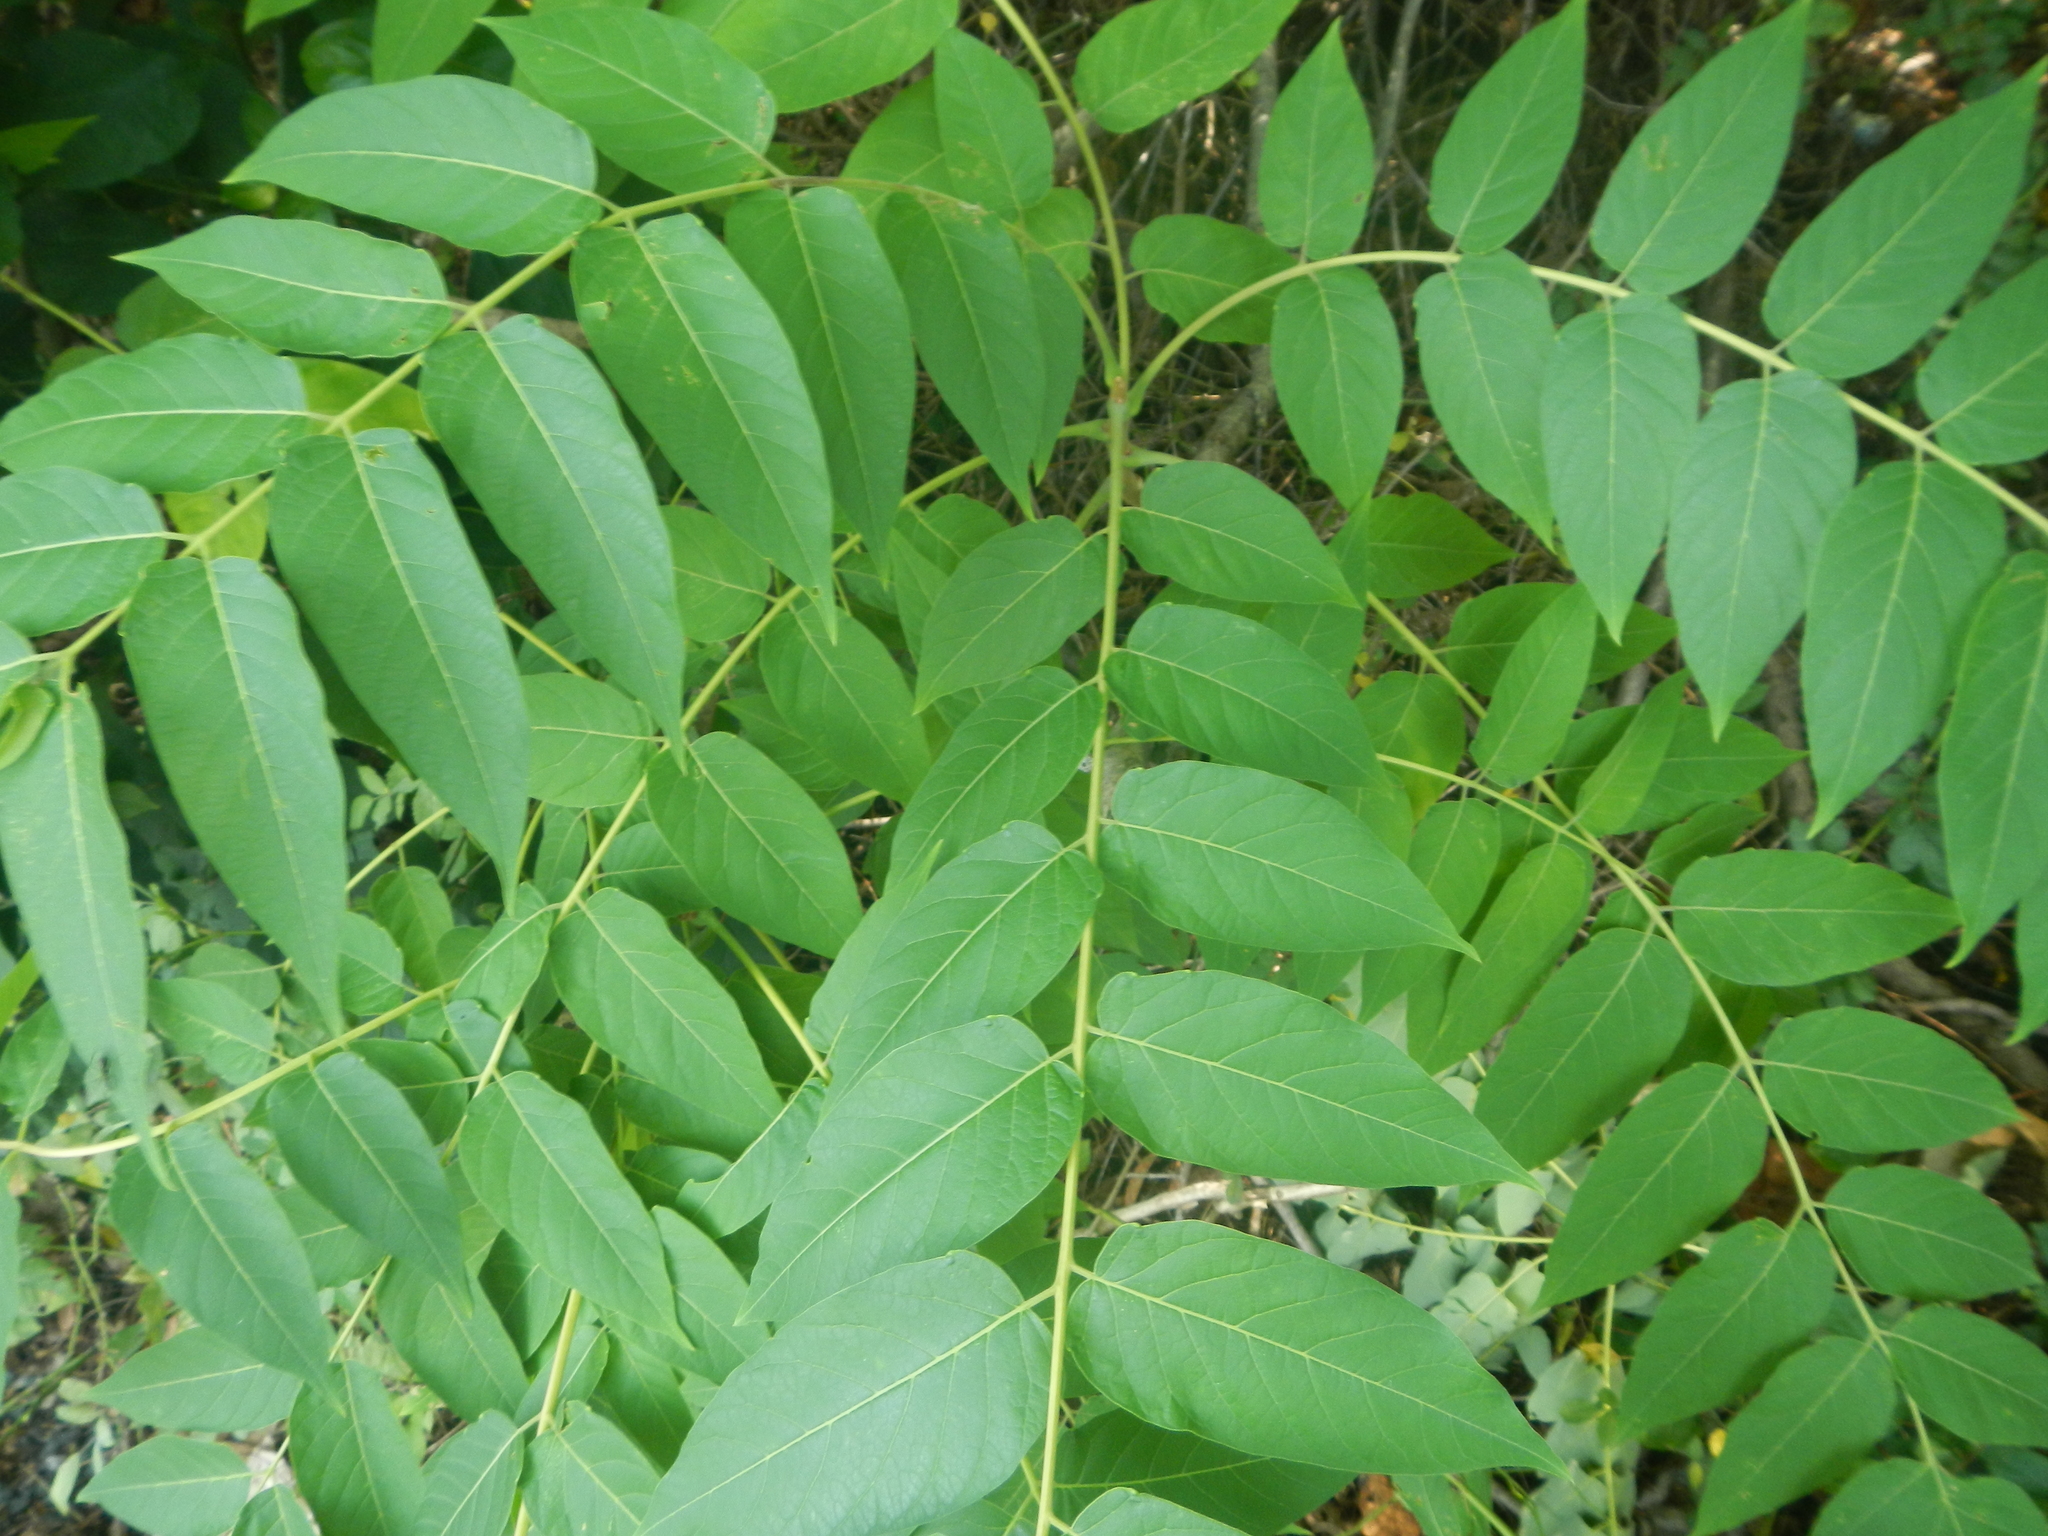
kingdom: Plantae
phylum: Tracheophyta
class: Magnoliopsida
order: Sapindales
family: Simaroubaceae
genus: Ailanthus
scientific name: Ailanthus altissima
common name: Tree-of-heaven
